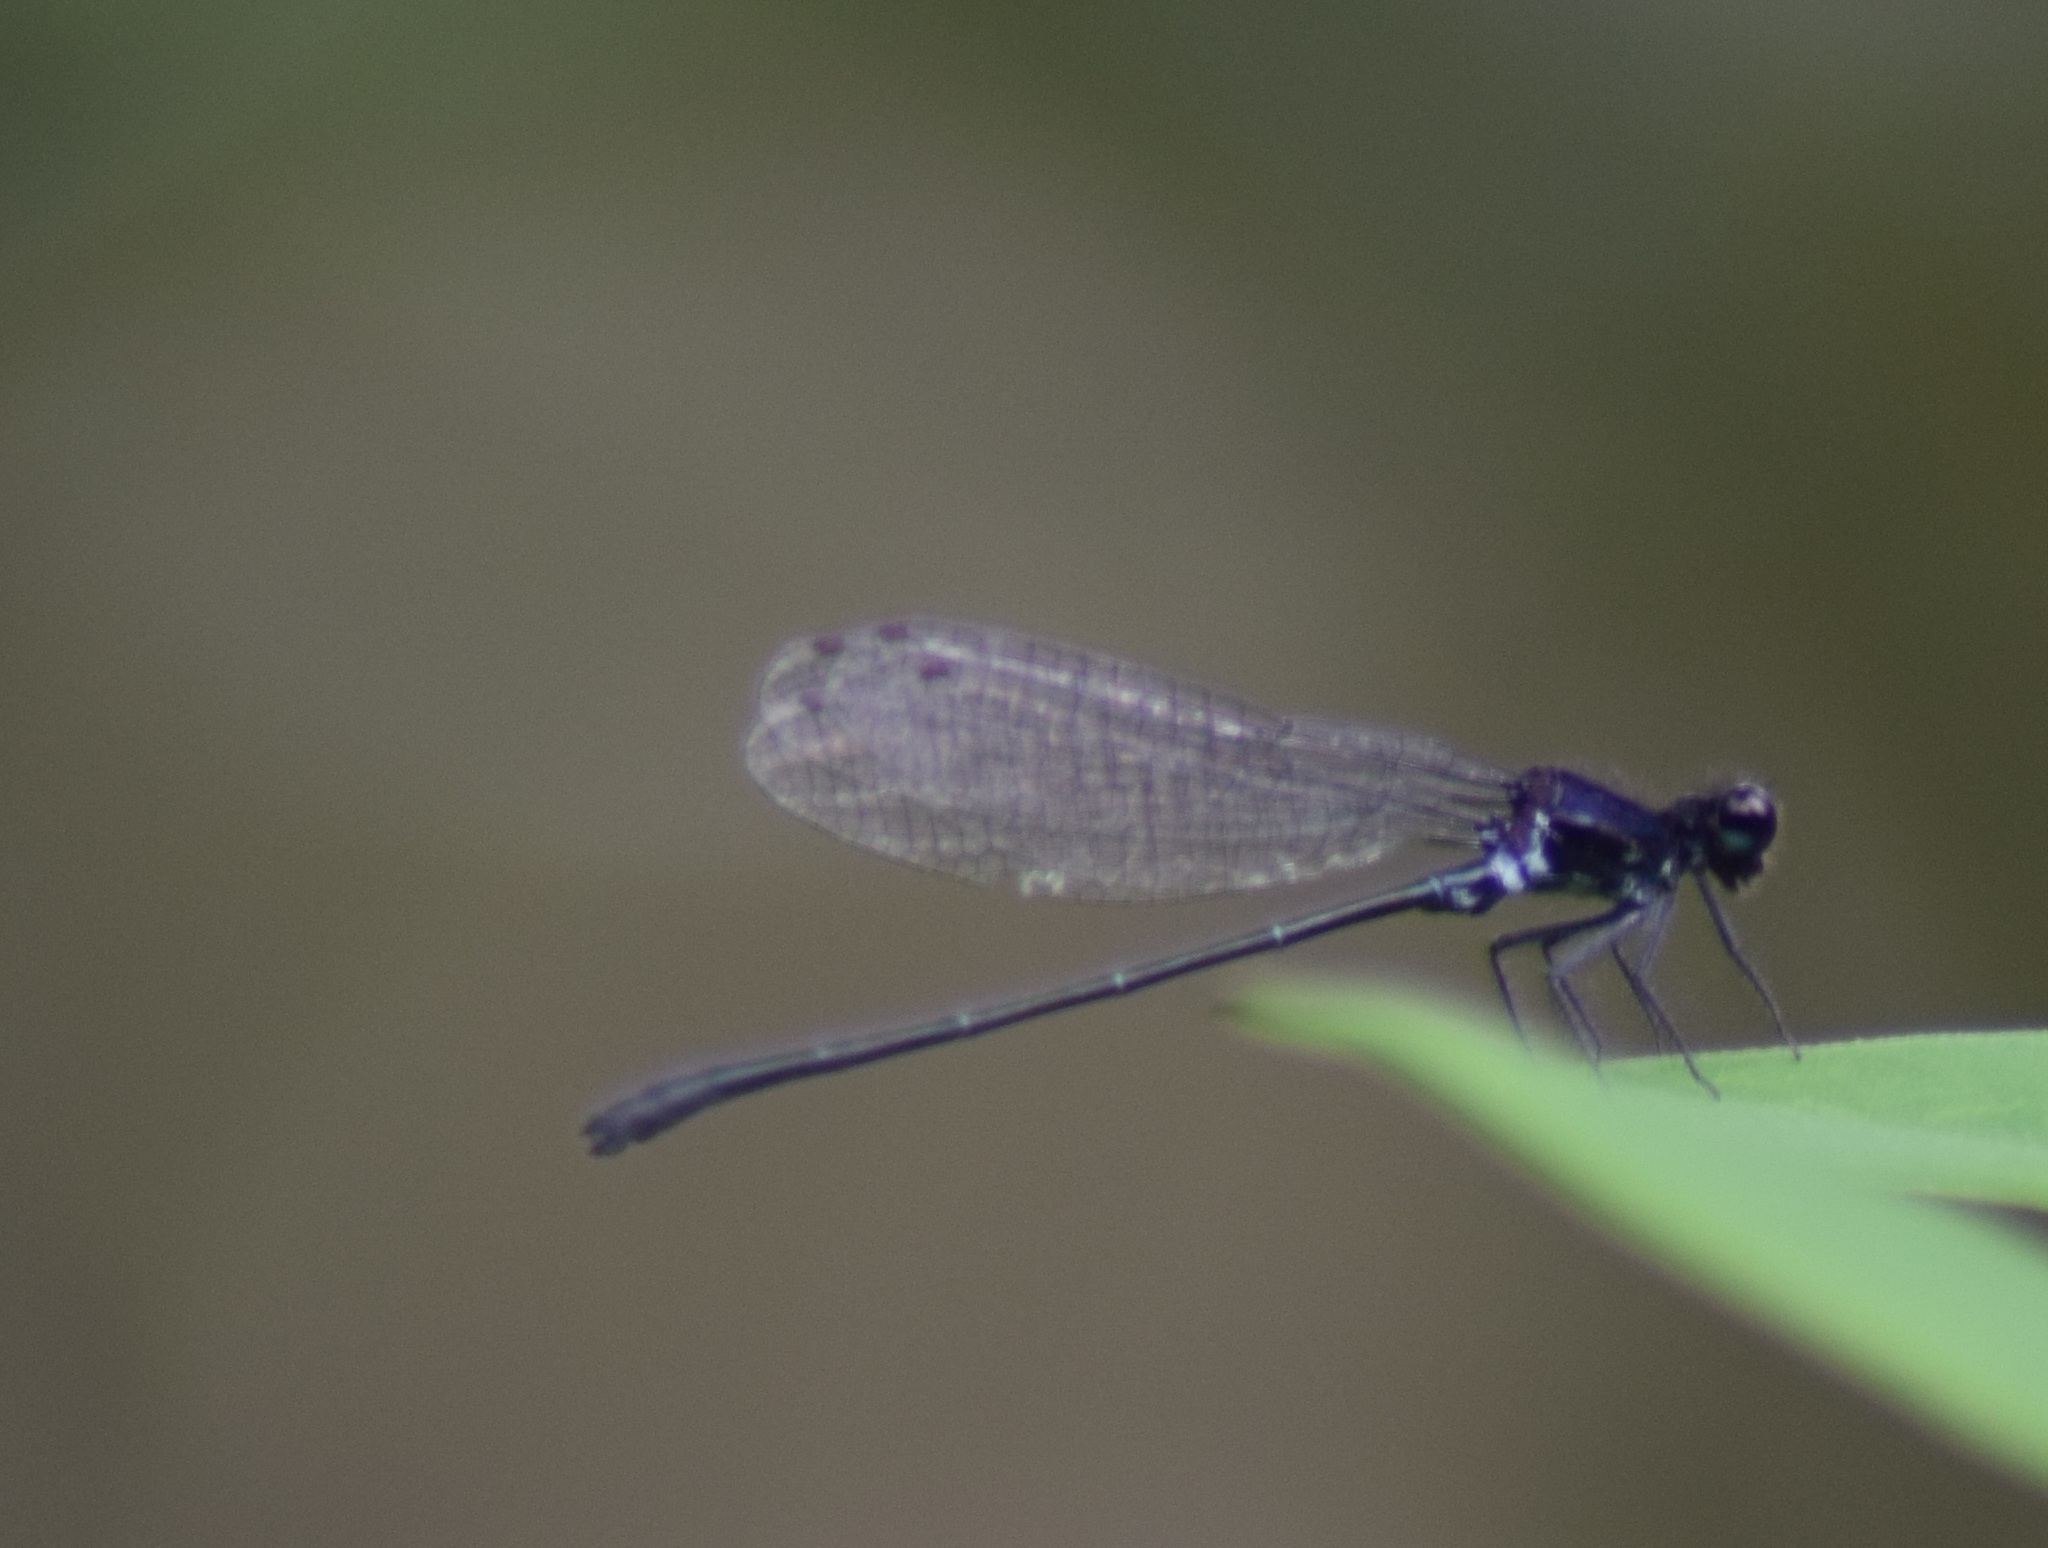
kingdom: Animalia
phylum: Arthropoda
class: Insecta
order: Odonata
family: Platycnemididae
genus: Onychargia
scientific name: Onychargia atrocyana
